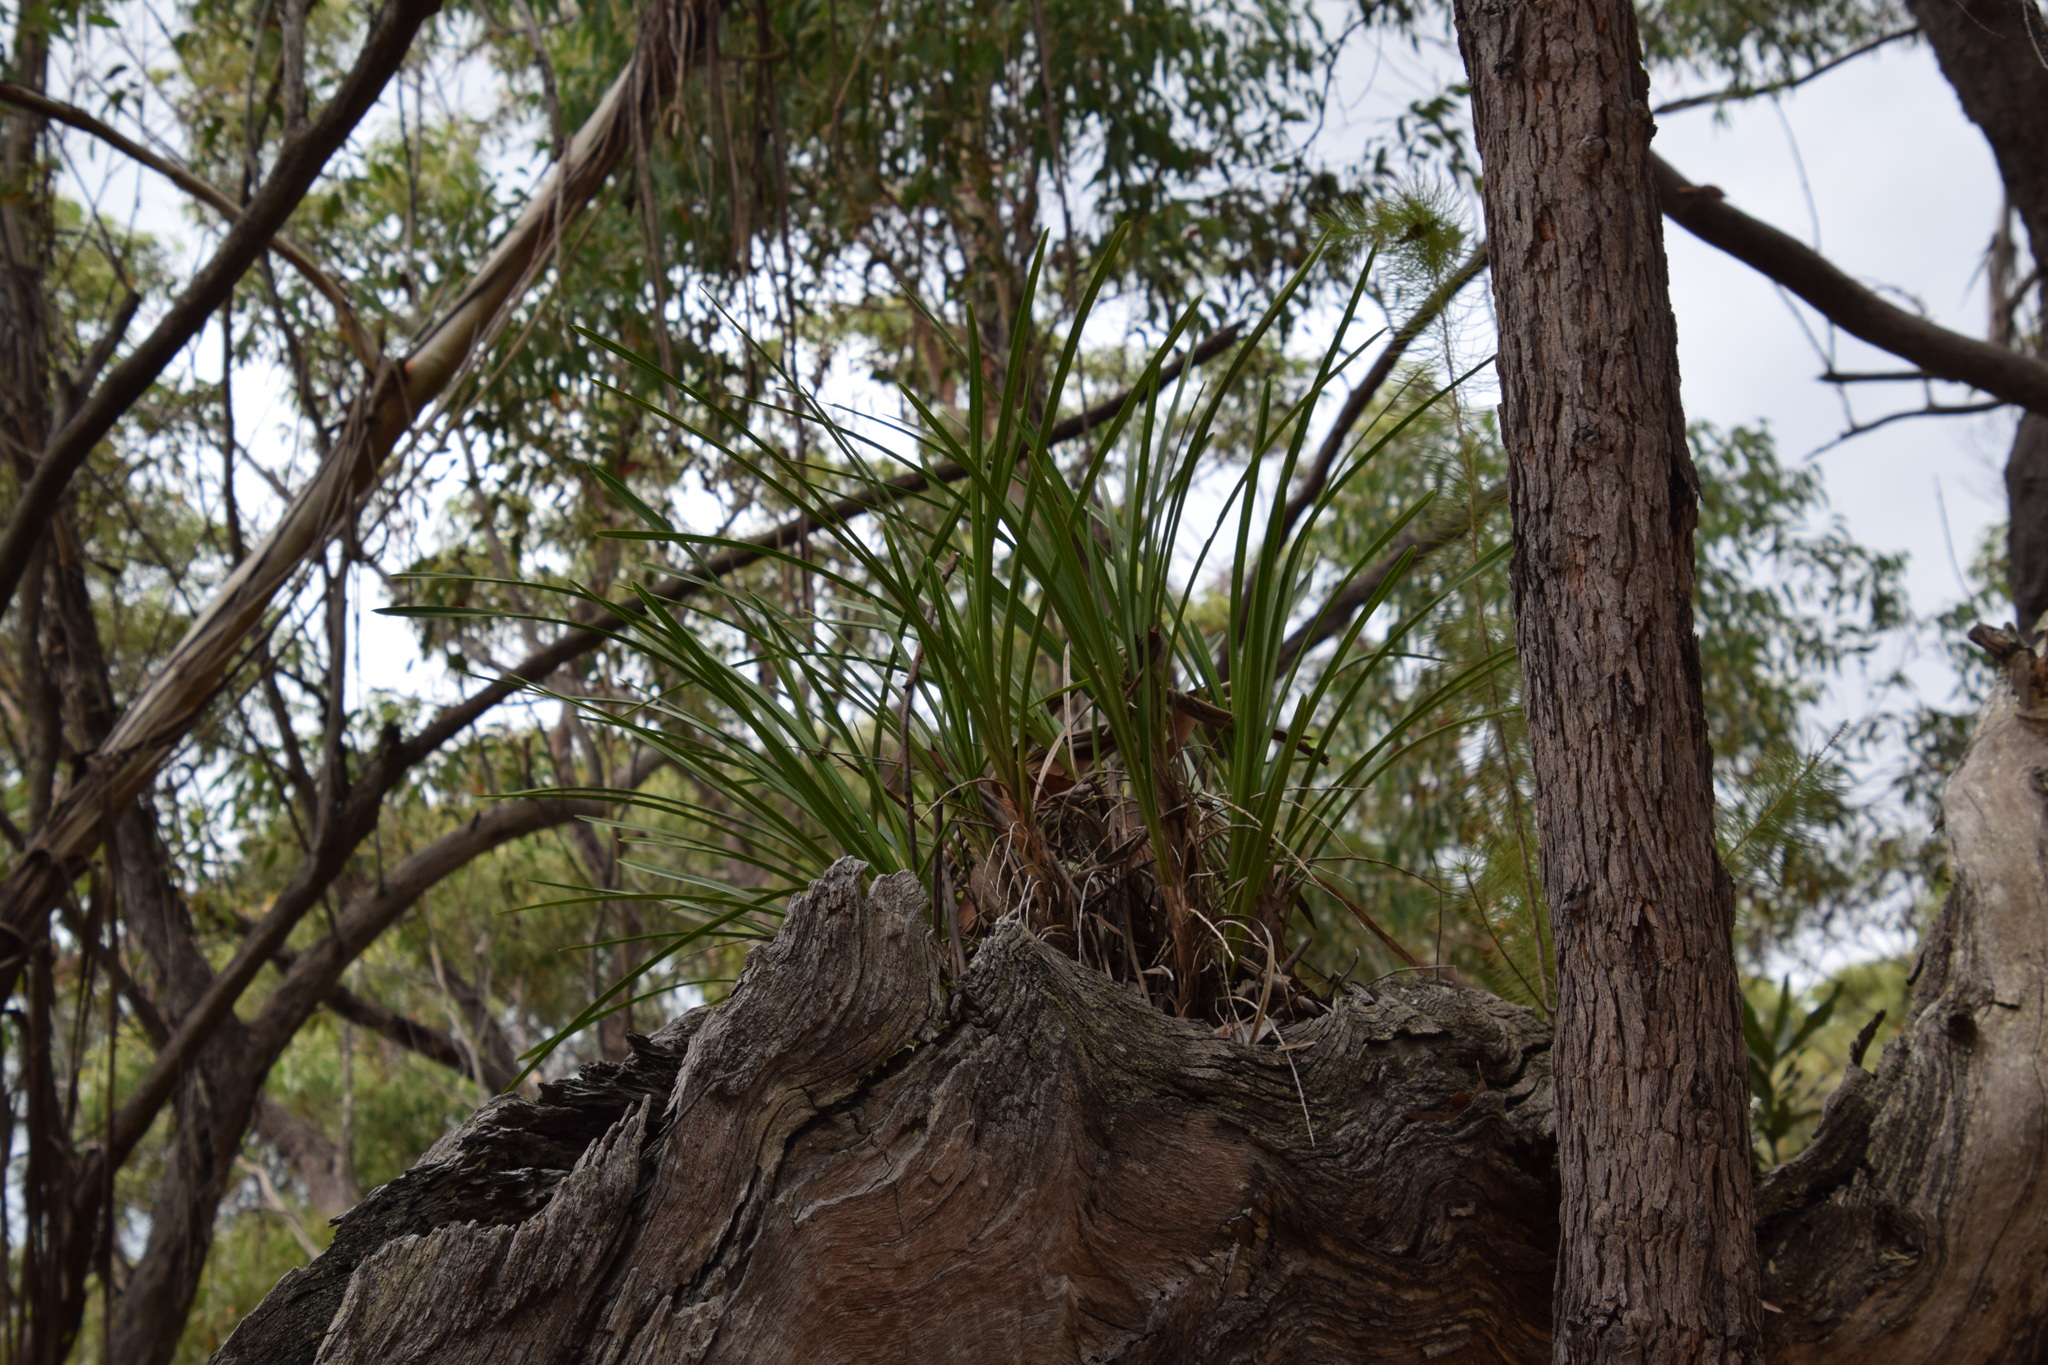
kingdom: Plantae
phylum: Tracheophyta
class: Liliopsida
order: Asparagales
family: Orchidaceae
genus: Cymbidium
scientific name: Cymbidium suave
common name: Snake orchid
